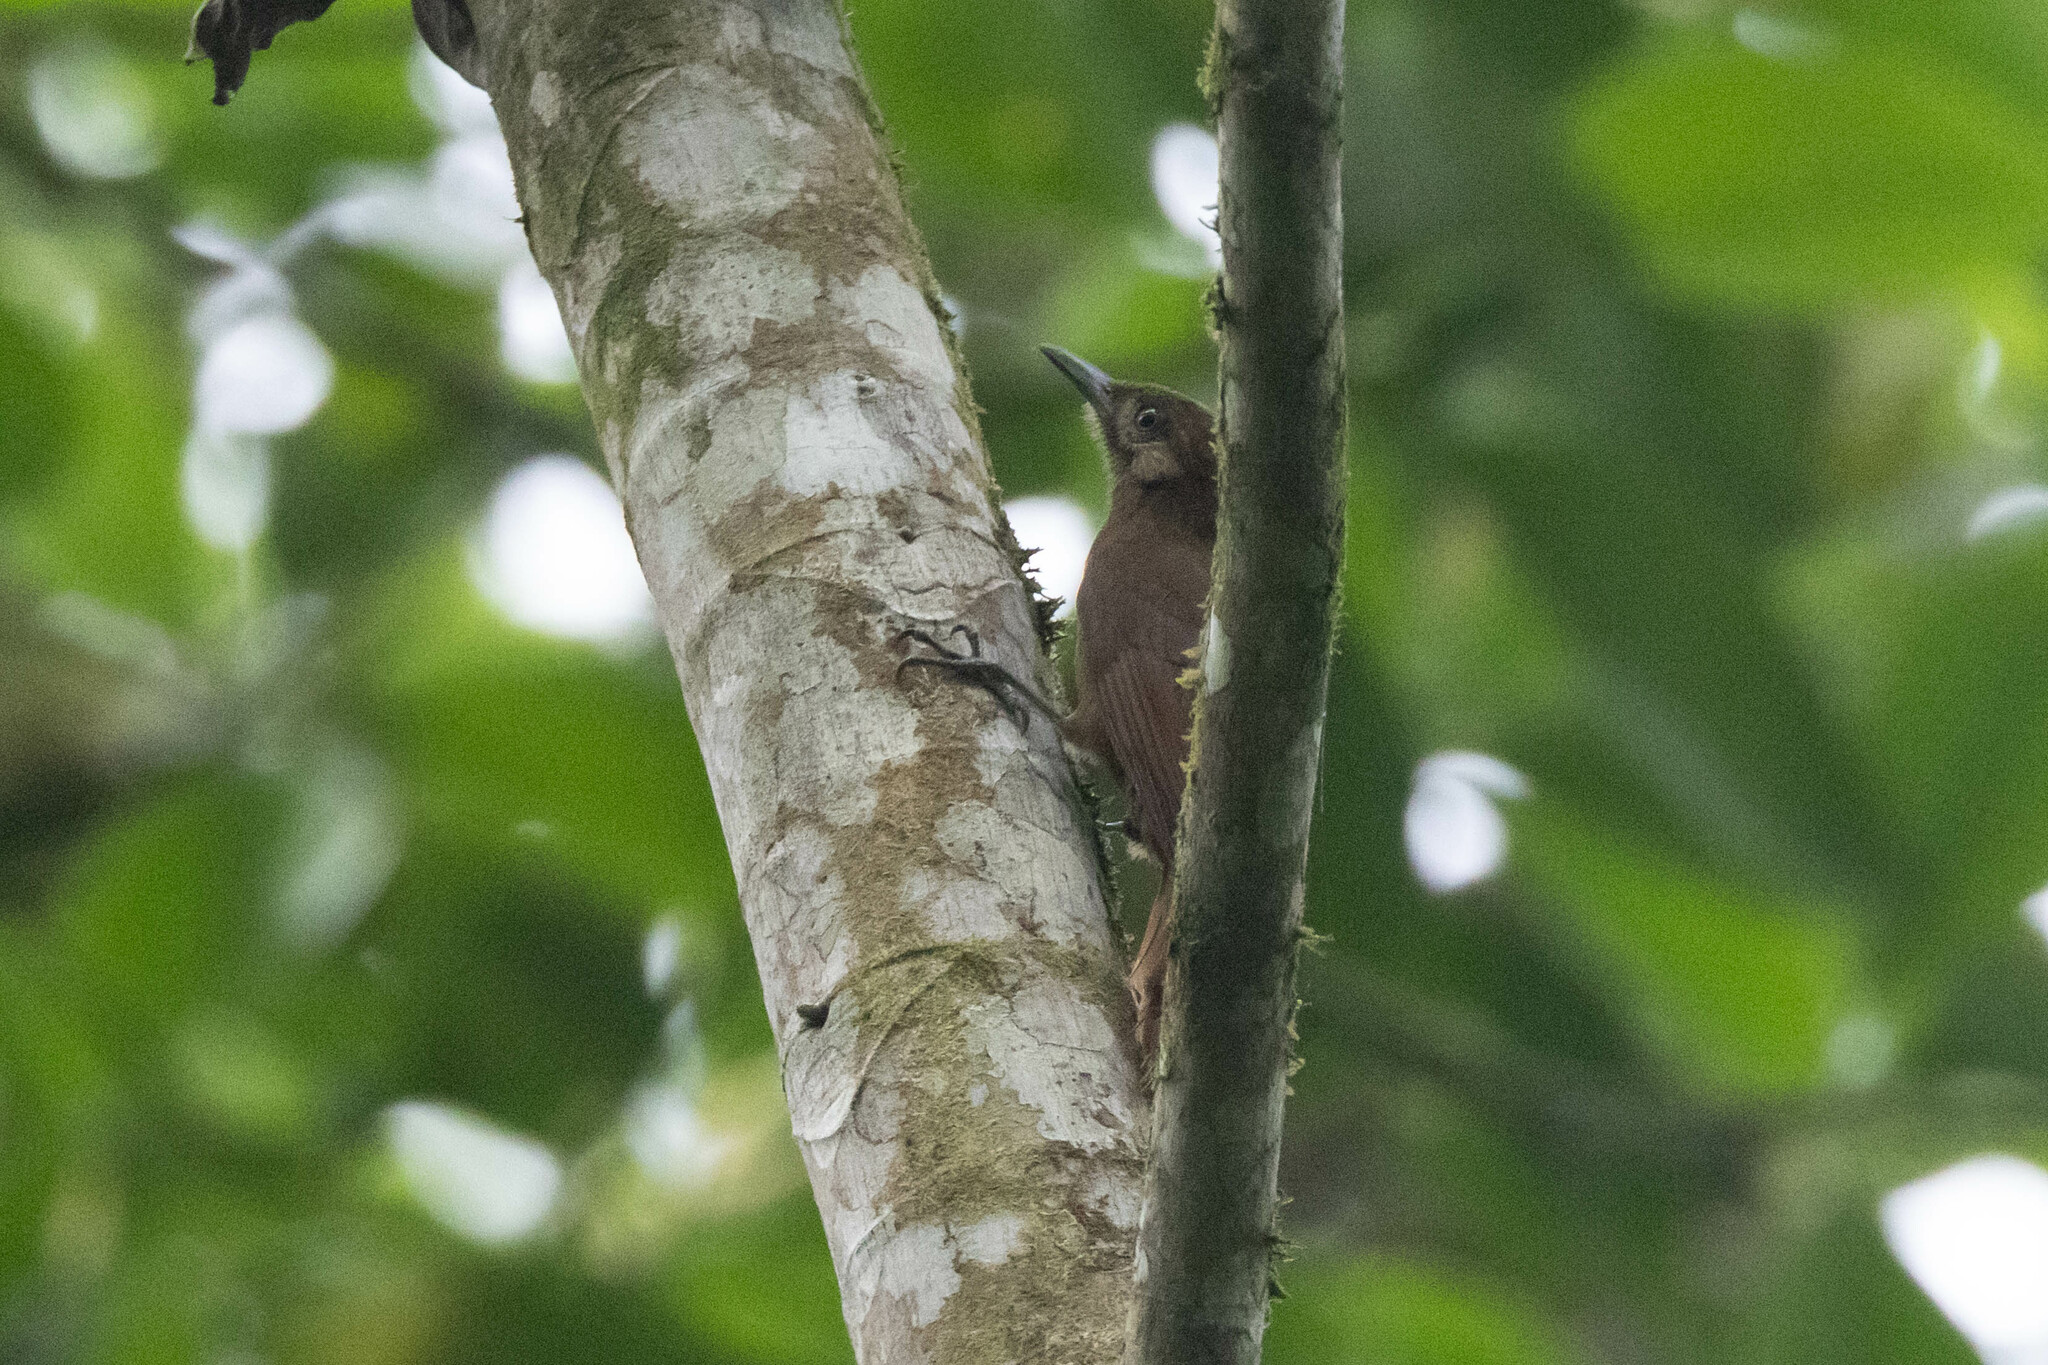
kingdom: Animalia
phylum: Chordata
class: Aves
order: Passeriformes
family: Furnariidae
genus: Dendrocincla
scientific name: Dendrocincla fuliginosa
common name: Plain-brown woodcreeper
